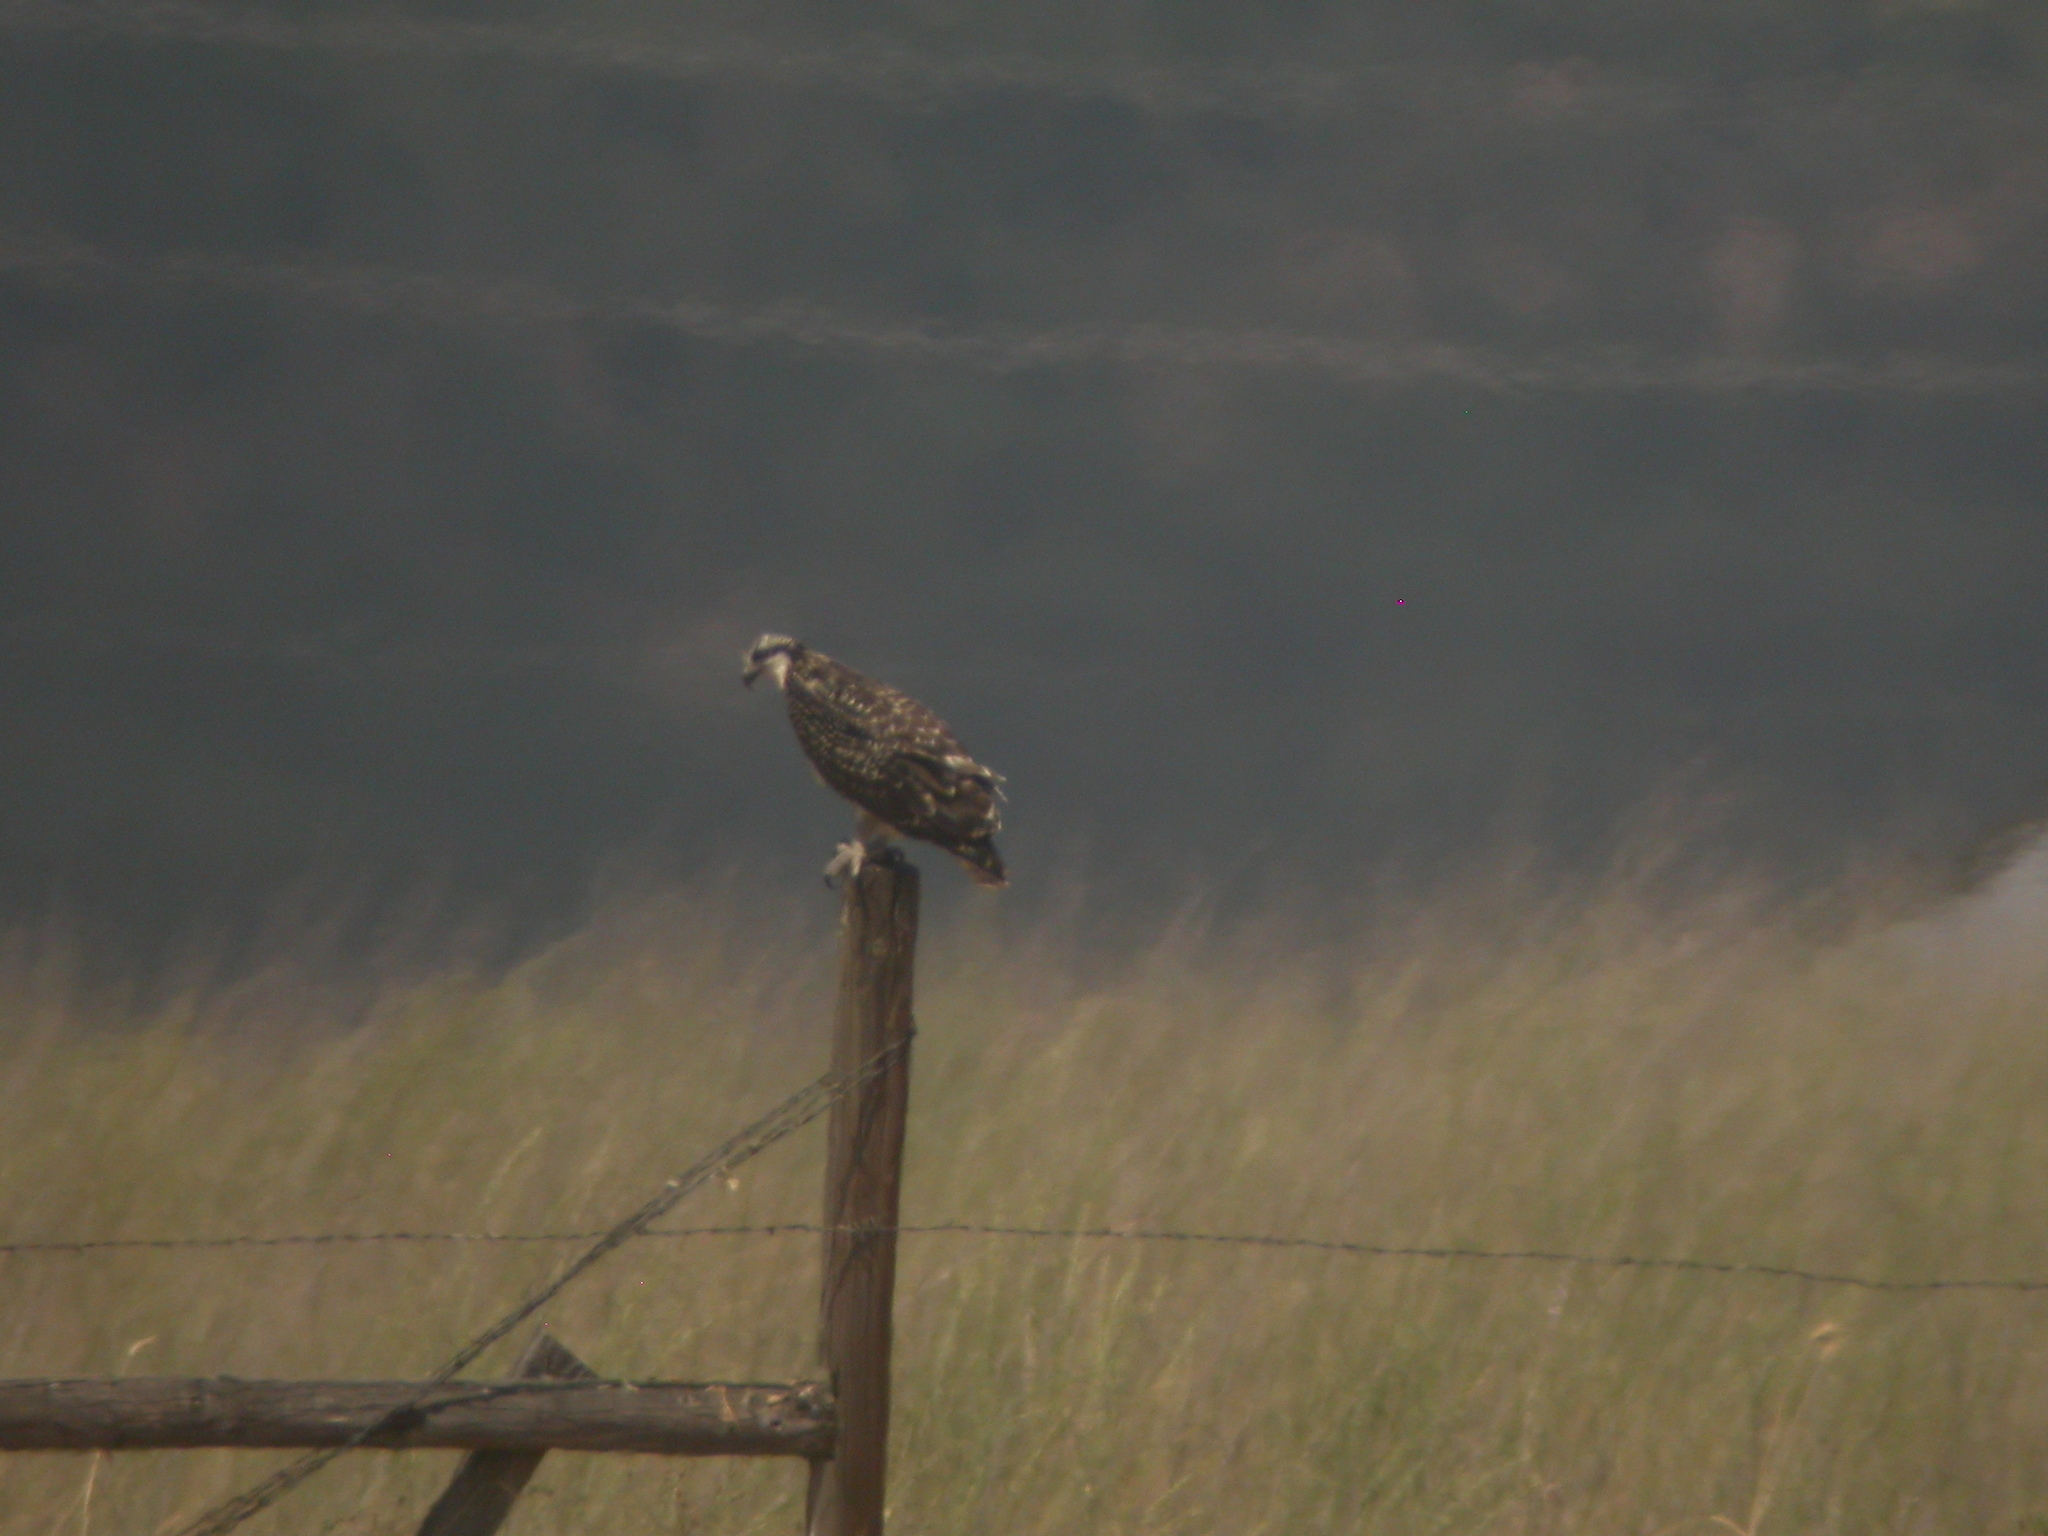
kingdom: Animalia
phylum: Chordata
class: Aves
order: Accipitriformes
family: Pandionidae
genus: Pandion
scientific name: Pandion haliaetus
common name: Osprey
